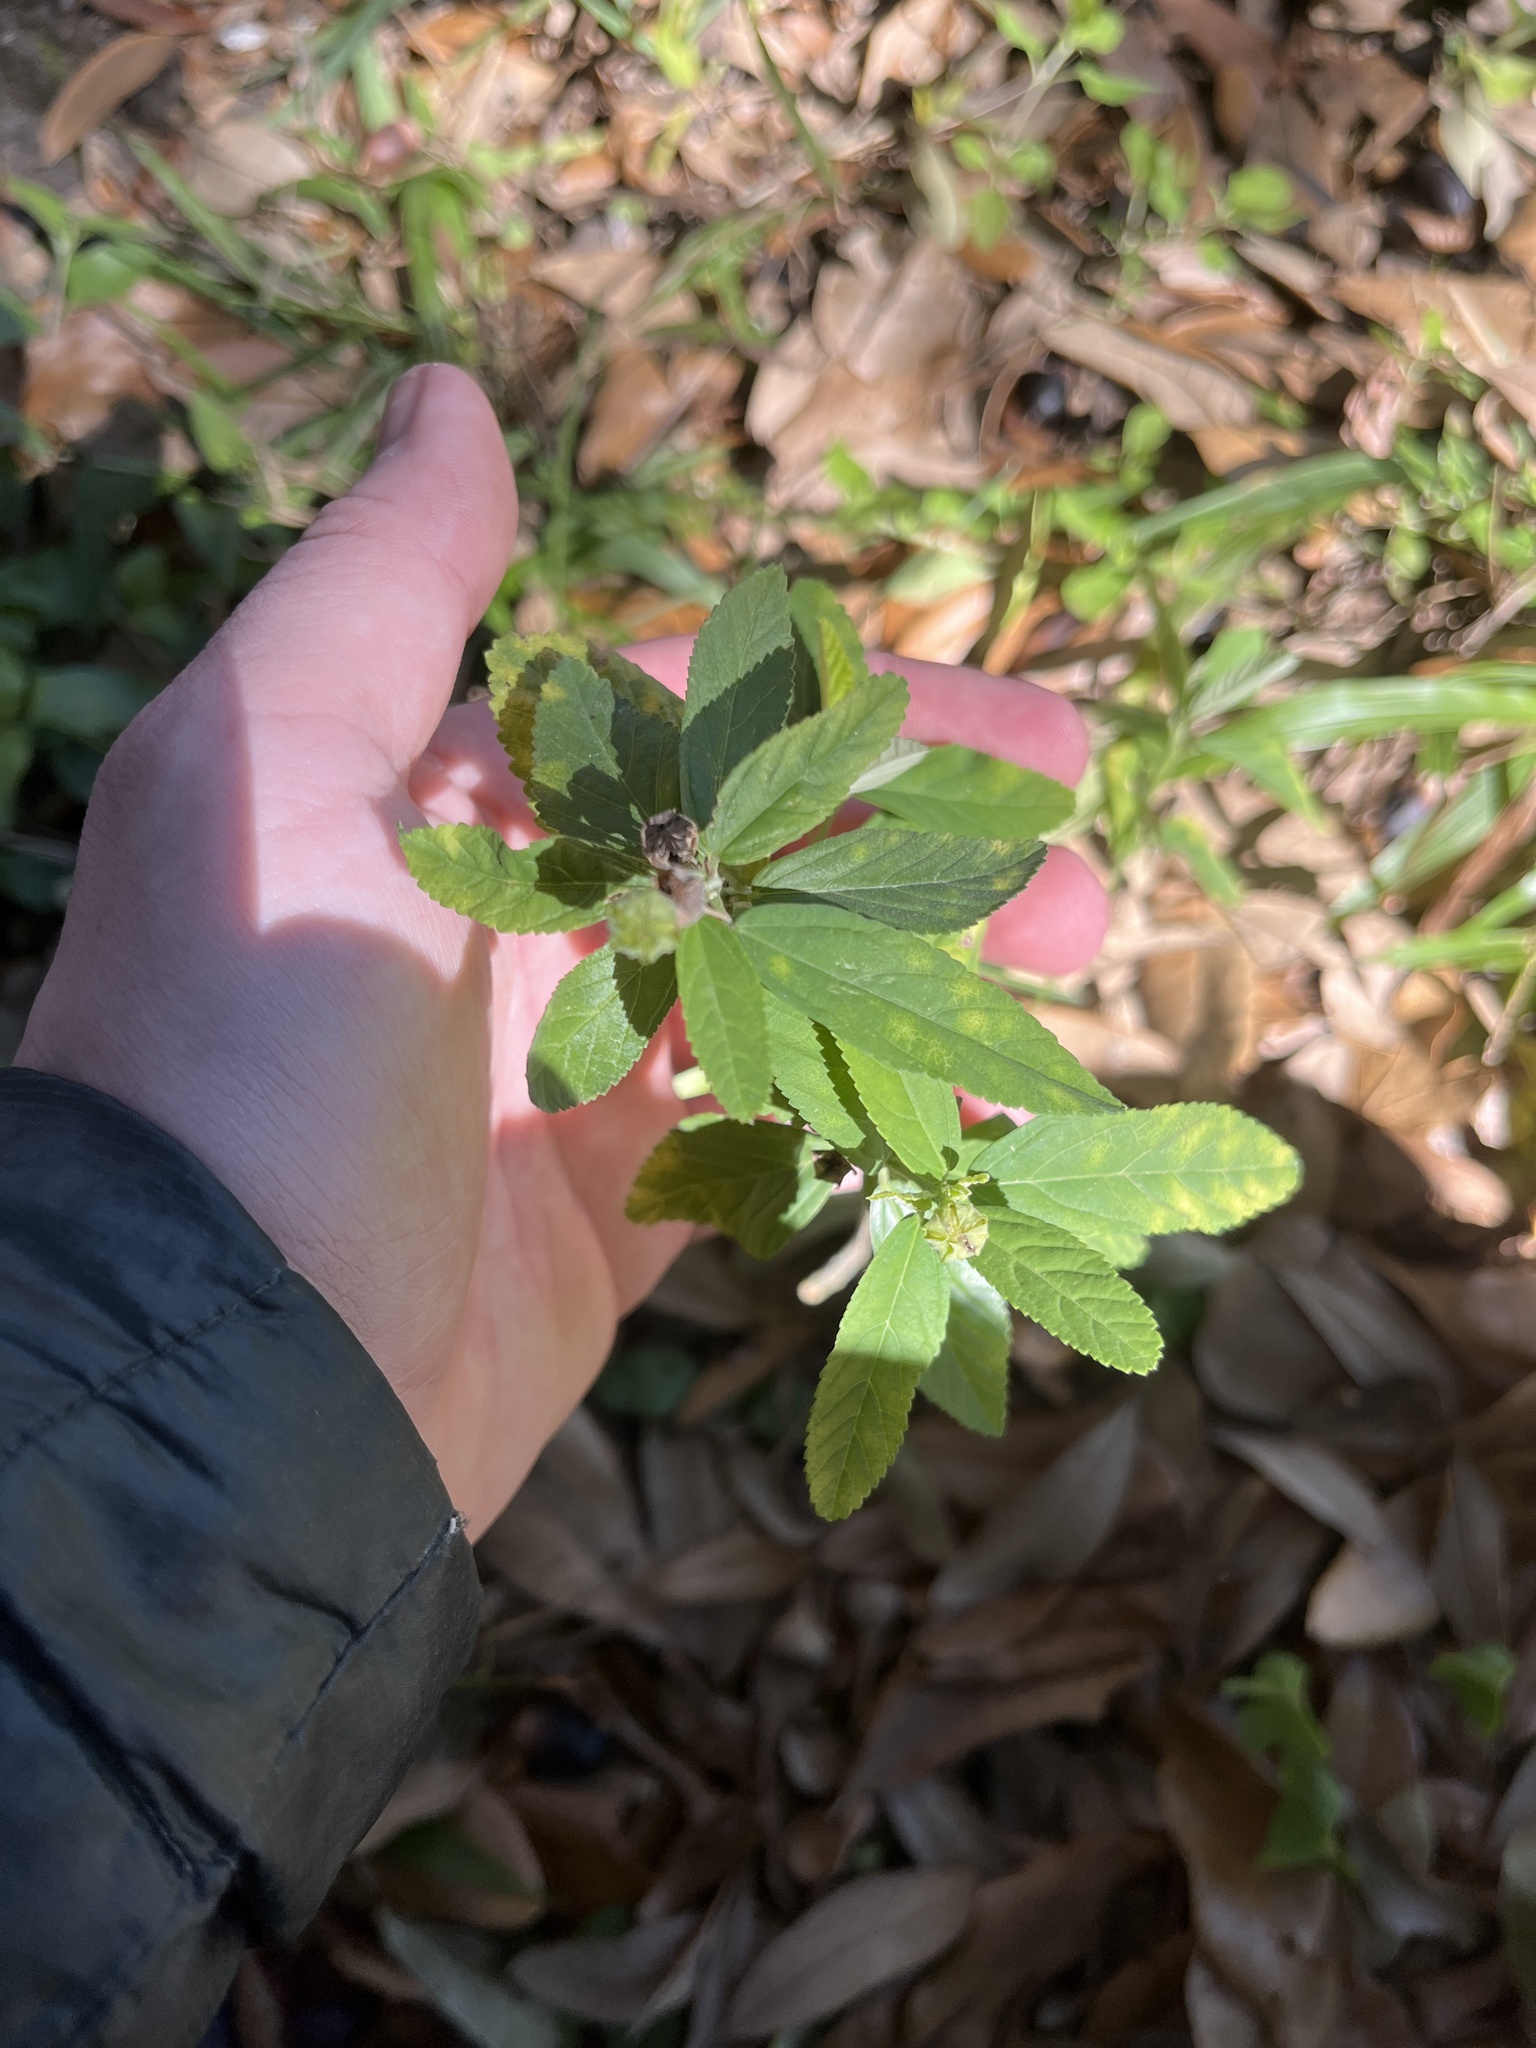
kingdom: Plantae
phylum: Tracheophyta
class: Magnoliopsida
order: Malvales
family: Malvaceae
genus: Sida
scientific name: Sida rhombifolia
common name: Queensland-hemp
